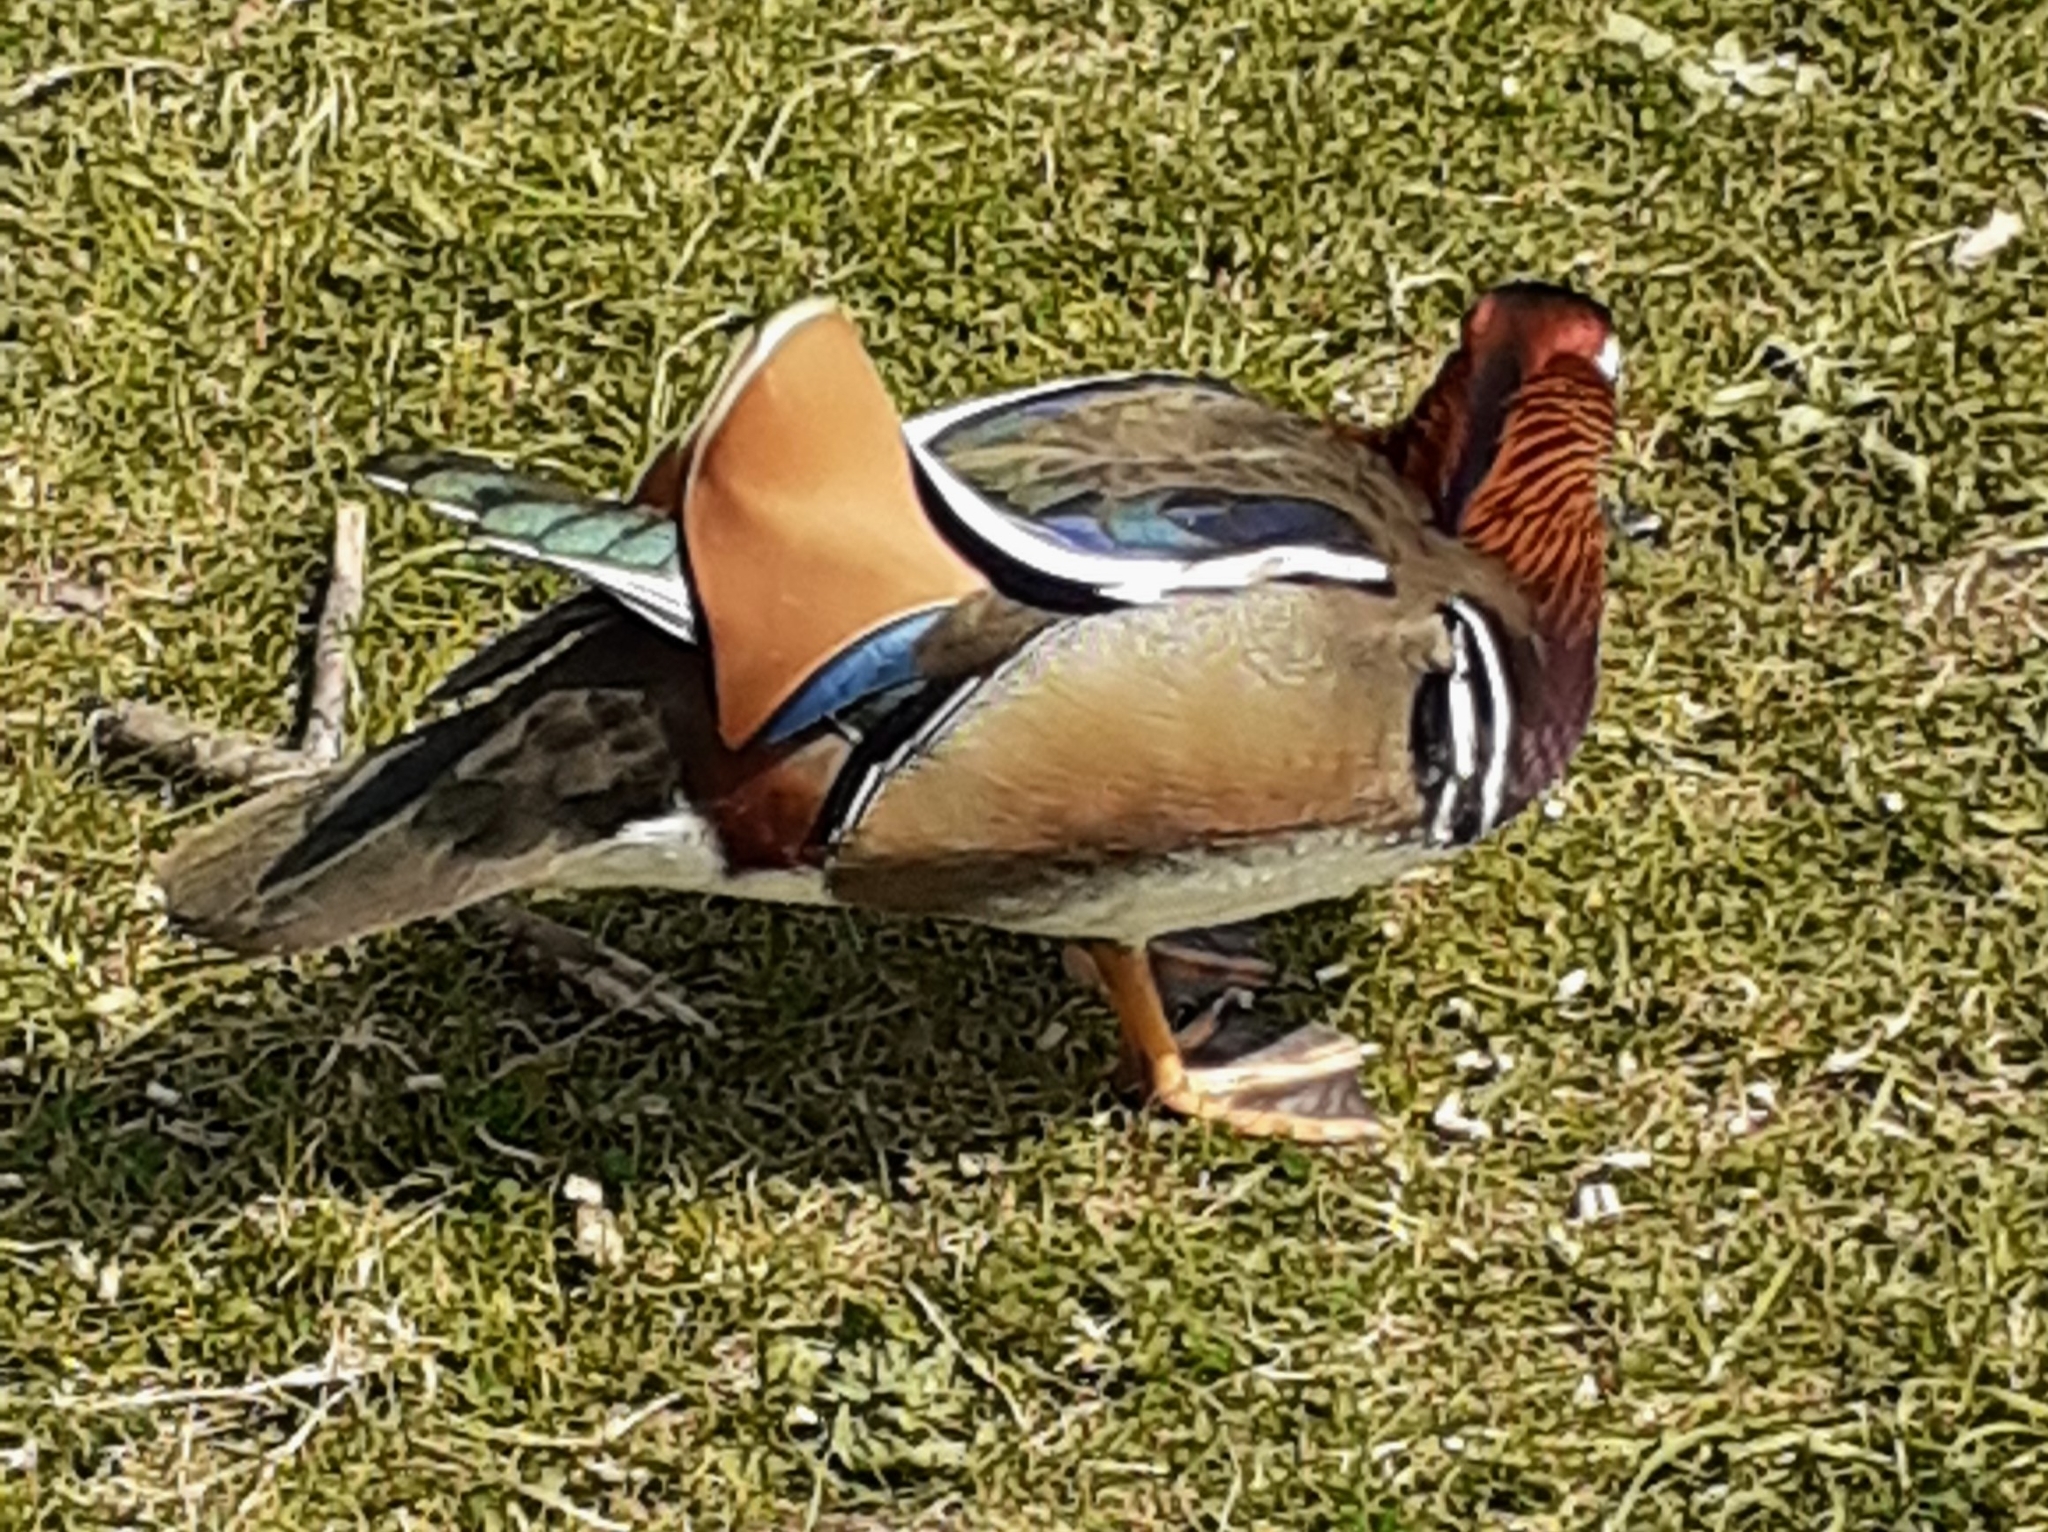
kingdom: Animalia
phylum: Chordata
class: Aves
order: Anseriformes
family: Anatidae
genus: Aix
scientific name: Aix galericulata
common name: Mandarin duck
